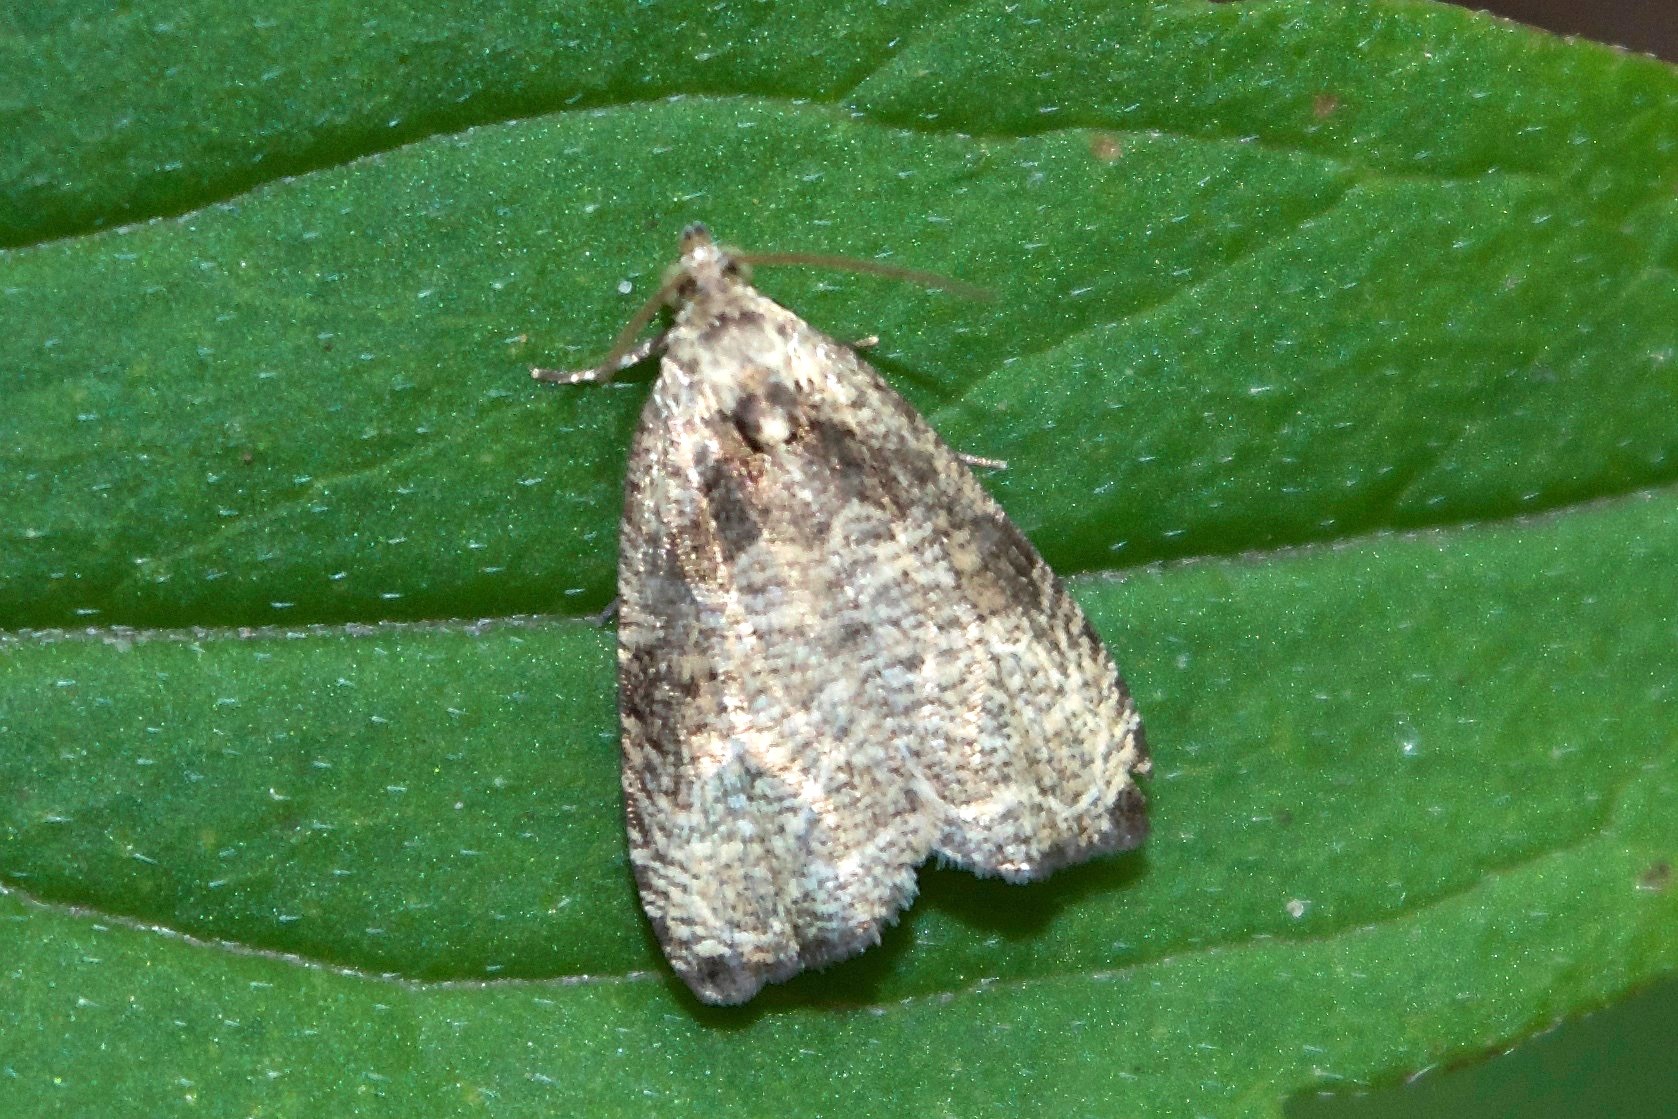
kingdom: Animalia
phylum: Arthropoda
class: Insecta
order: Lepidoptera
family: Tortricidae
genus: Olethreutes
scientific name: Olethreutes exoletum
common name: Wretched olethreutes moth
